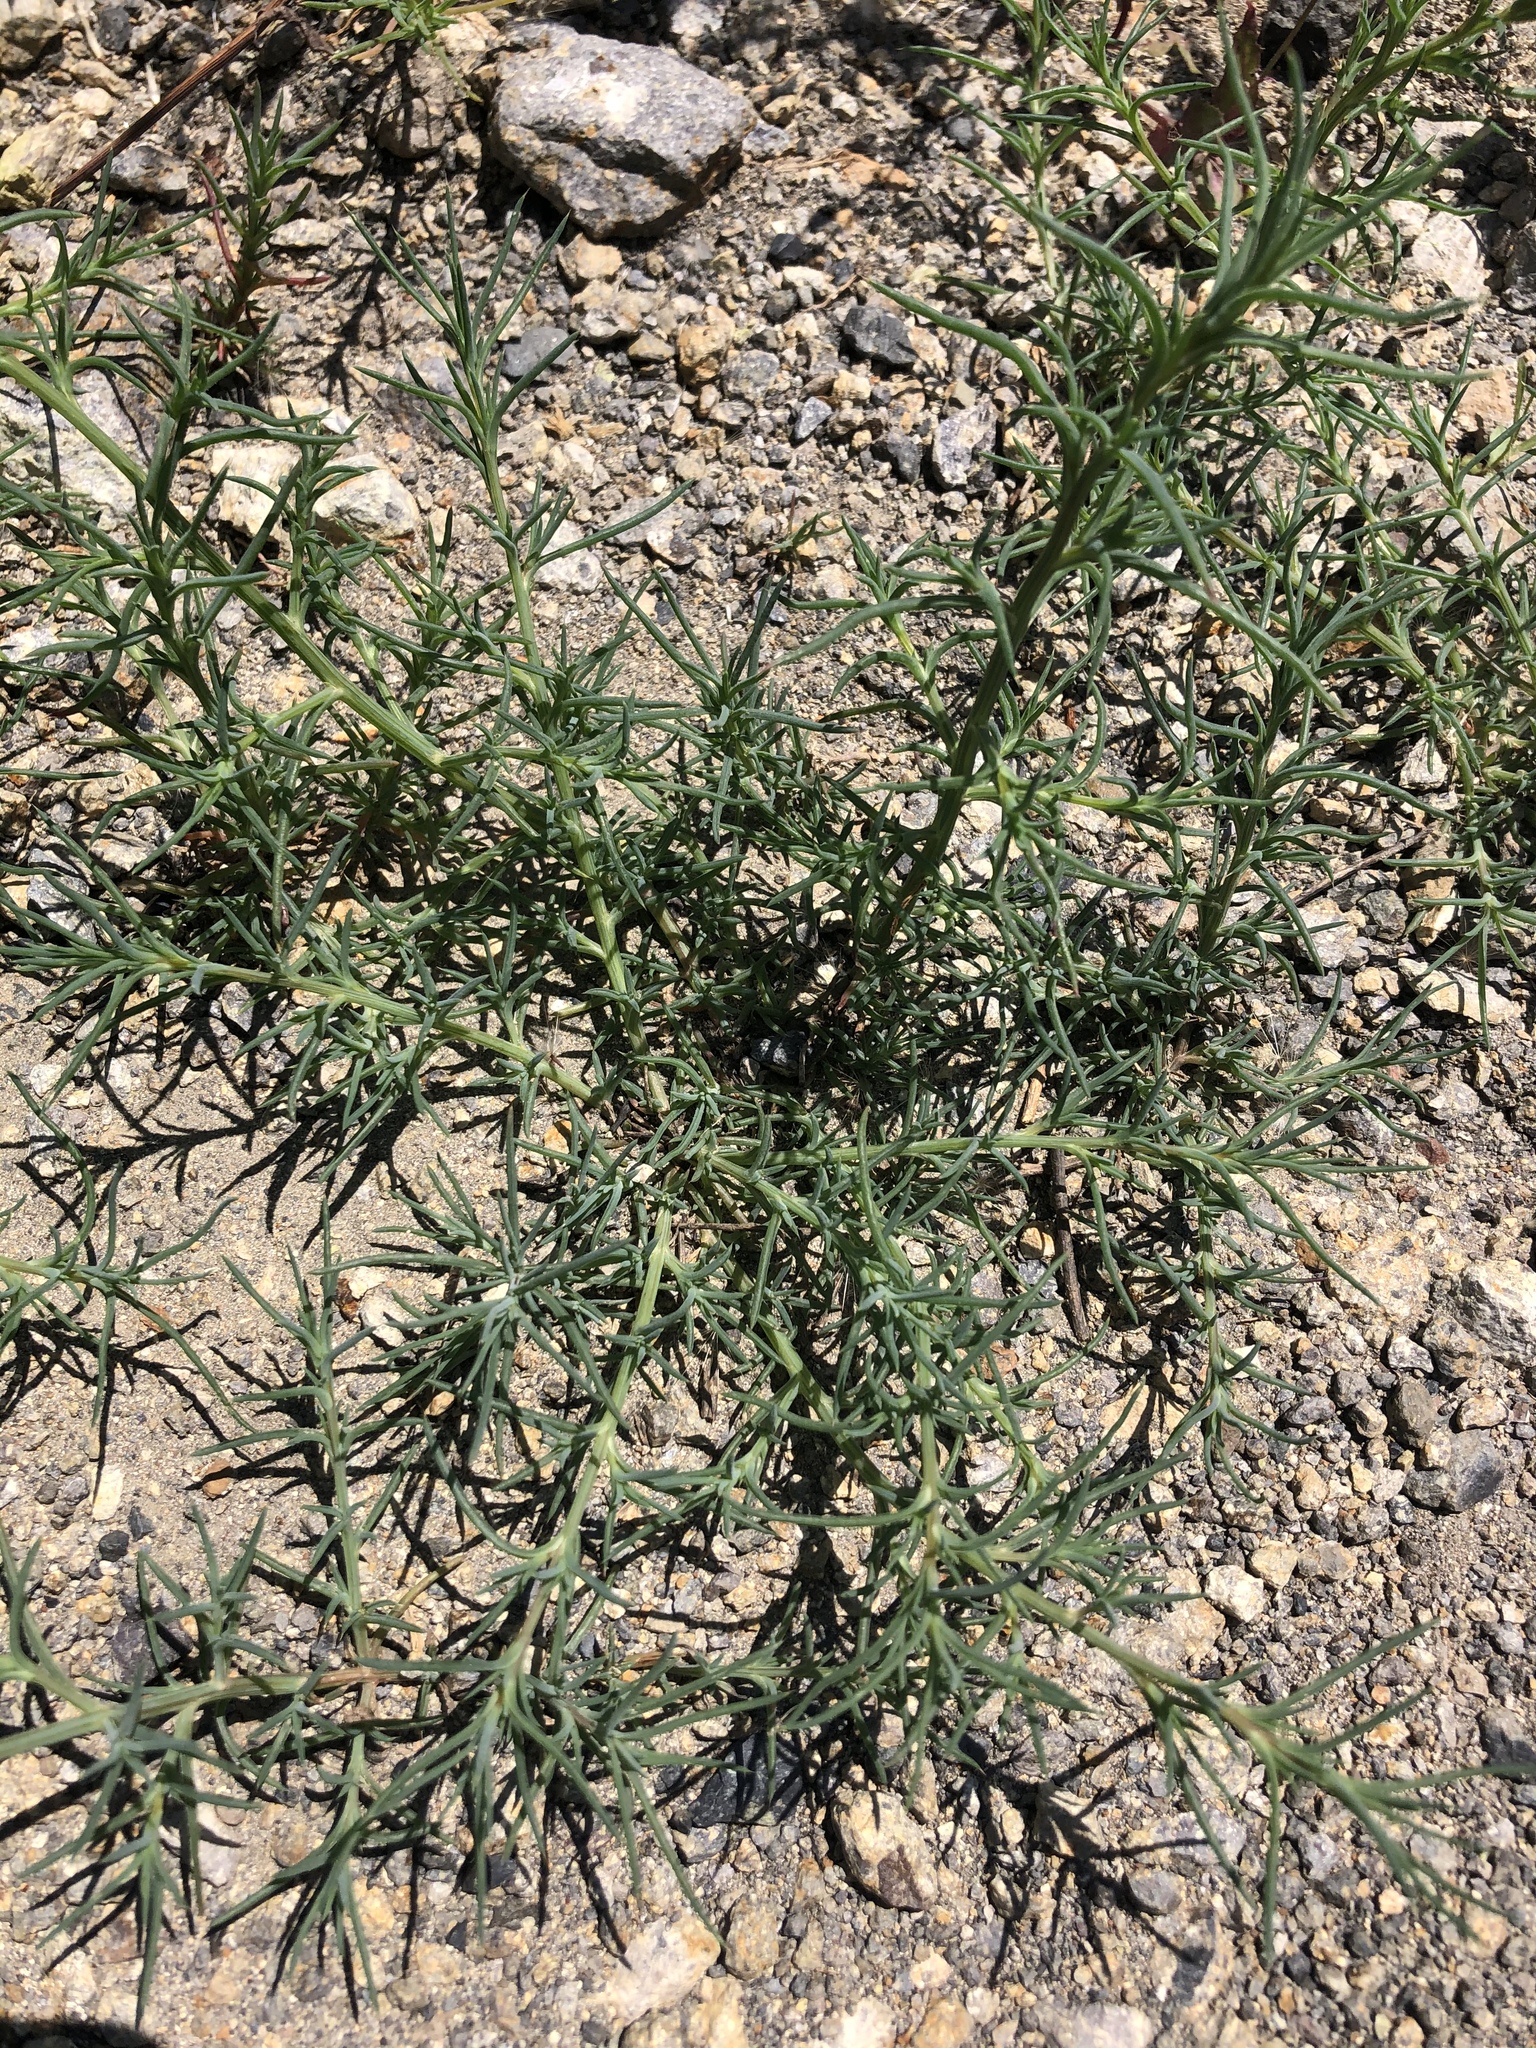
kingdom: Plantae
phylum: Tracheophyta
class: Magnoliopsida
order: Caryophyllales
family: Amaranthaceae
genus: Salsola
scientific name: Salsola tragus
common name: Prickly russian thistle
